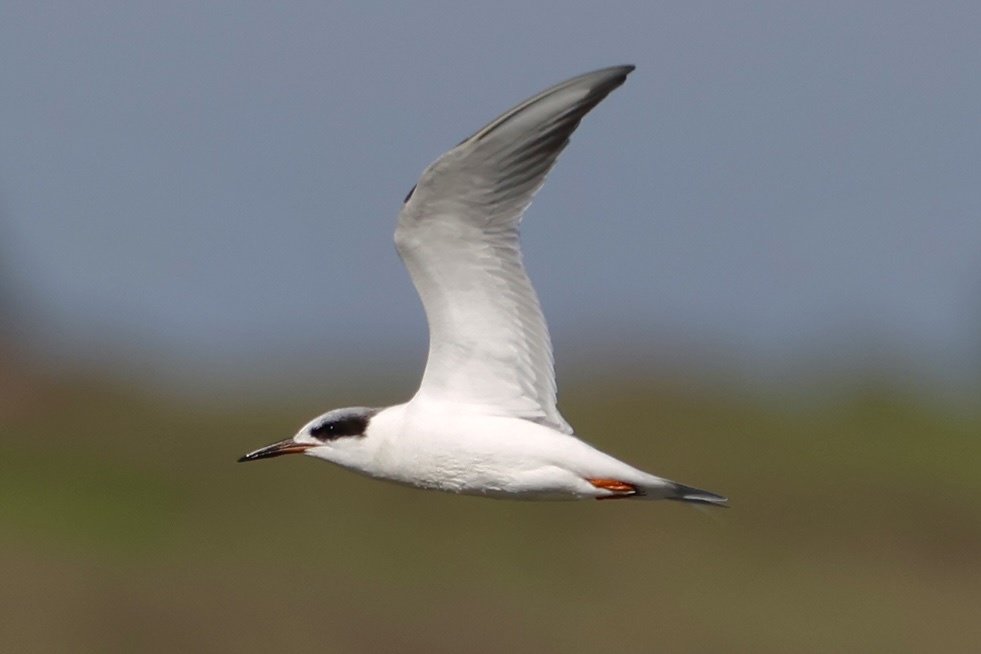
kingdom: Animalia
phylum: Chordata
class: Aves
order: Charadriiformes
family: Laridae
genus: Sterna
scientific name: Sterna forsteri
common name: Forster's tern
